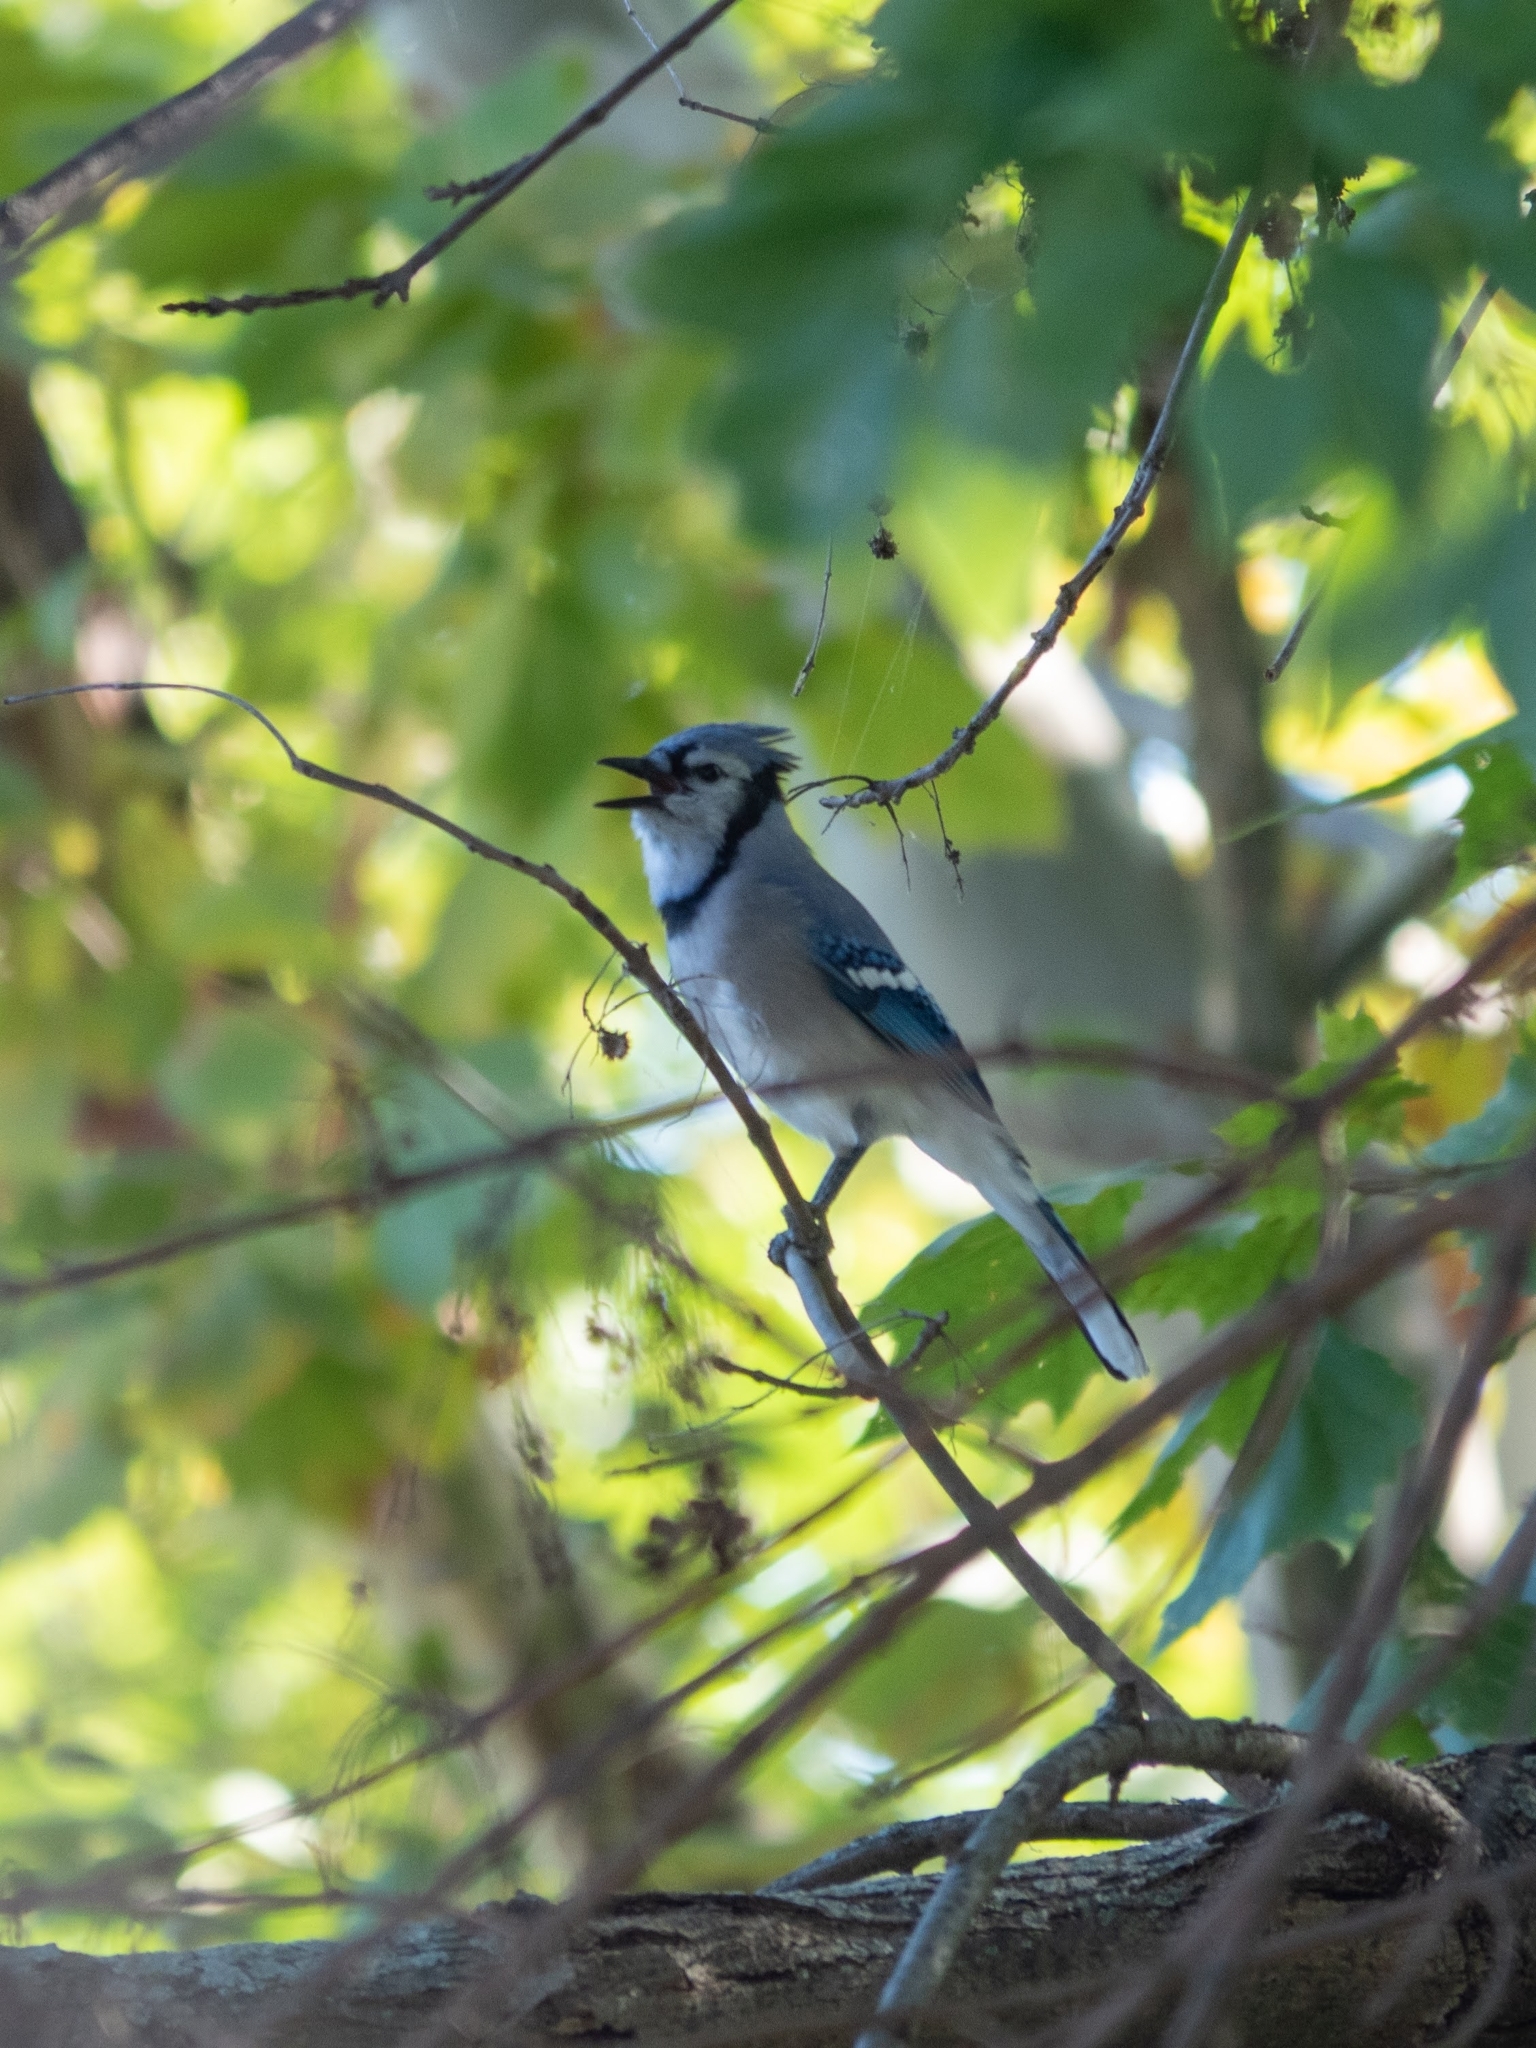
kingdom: Animalia
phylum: Chordata
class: Aves
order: Passeriformes
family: Corvidae
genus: Cyanocitta
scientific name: Cyanocitta cristata
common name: Blue jay
